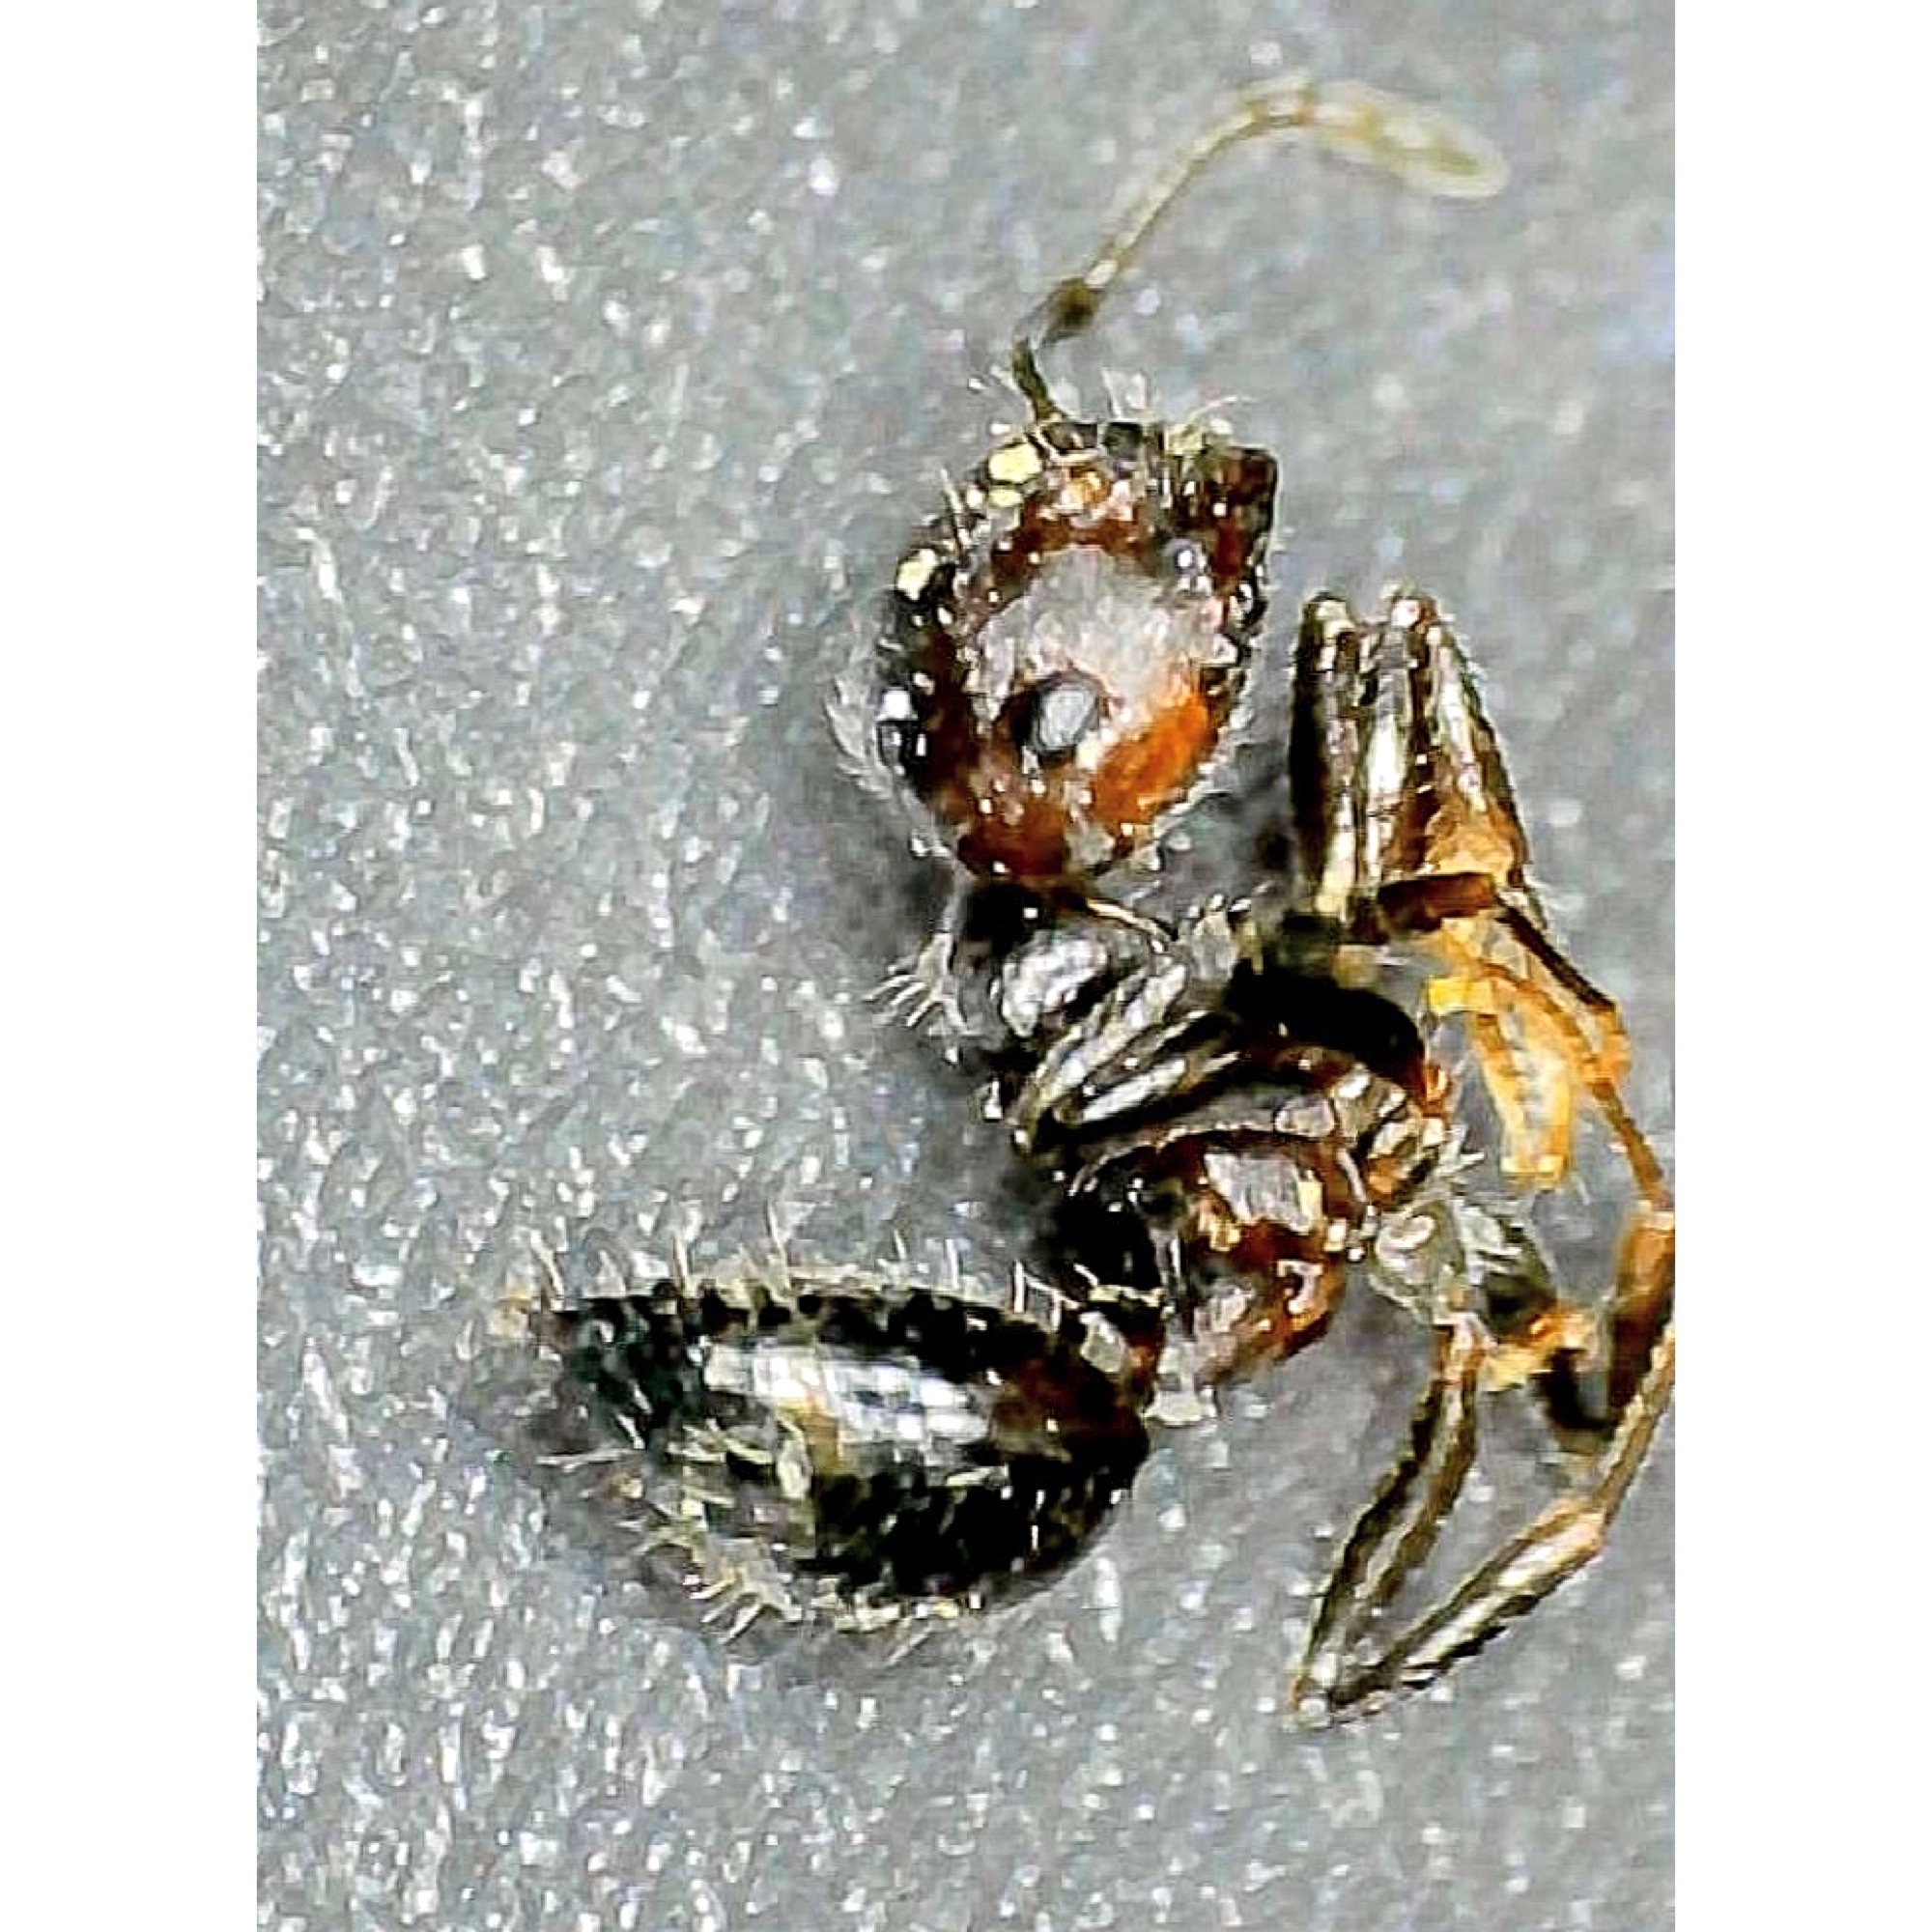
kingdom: Animalia
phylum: Arthropoda
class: Insecta
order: Hymenoptera
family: Formicidae
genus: Crematogaster
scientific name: Crematogaster pilosa
